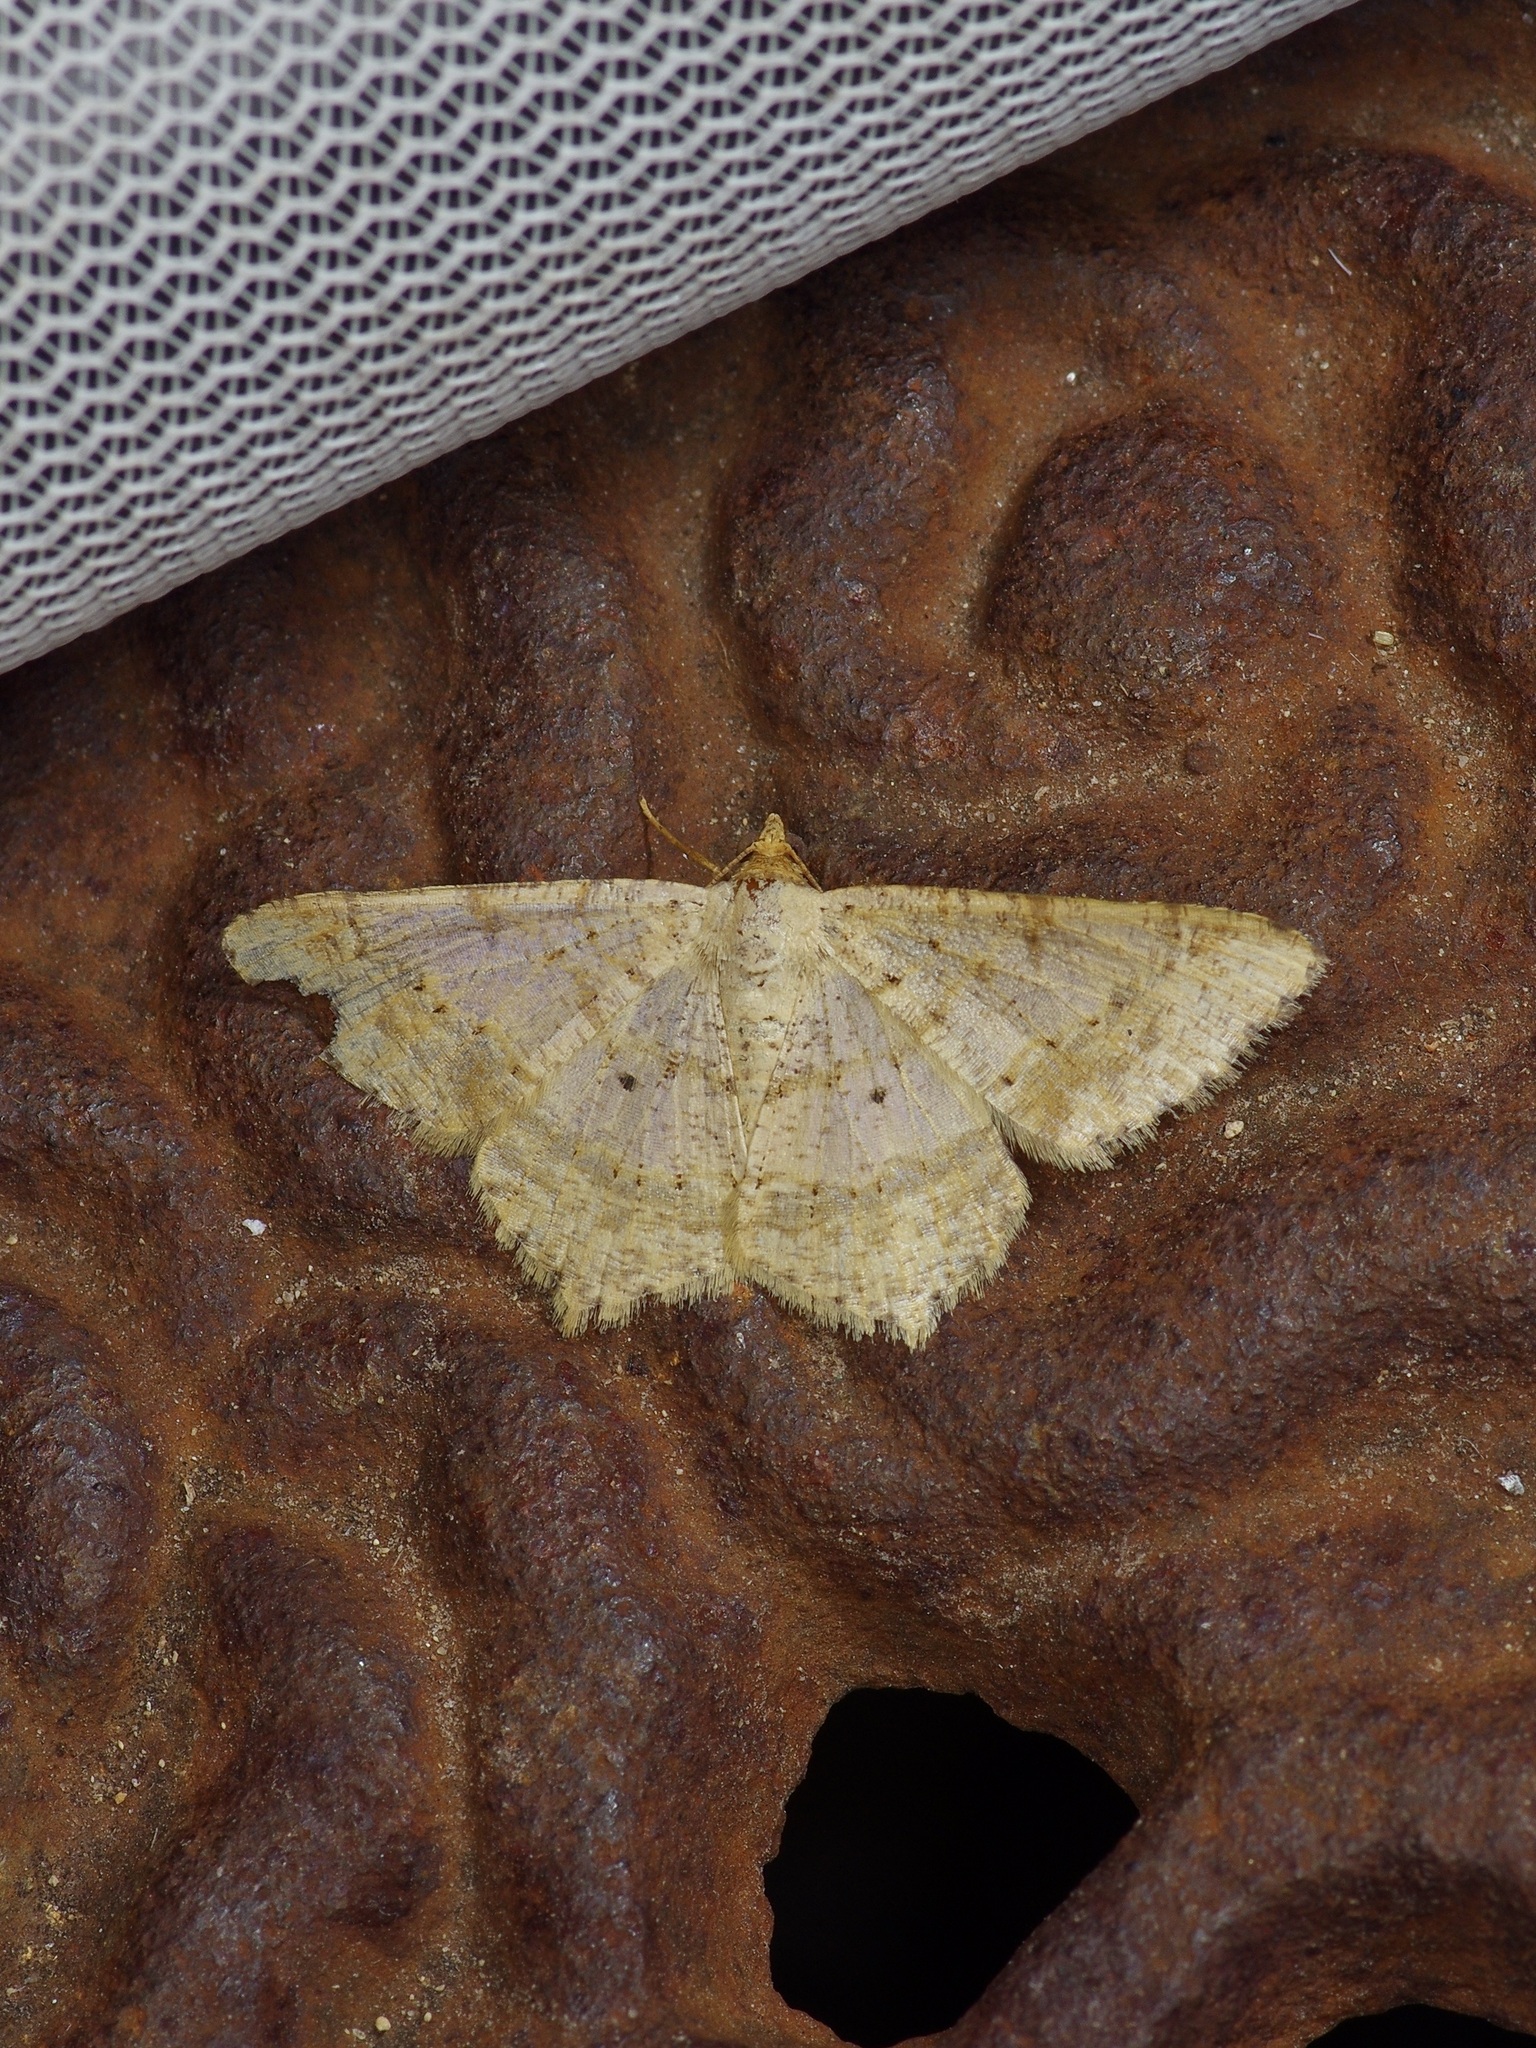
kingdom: Animalia
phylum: Arthropoda
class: Insecta
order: Lepidoptera
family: Geometridae
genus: Macaria
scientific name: Macaria abydata
